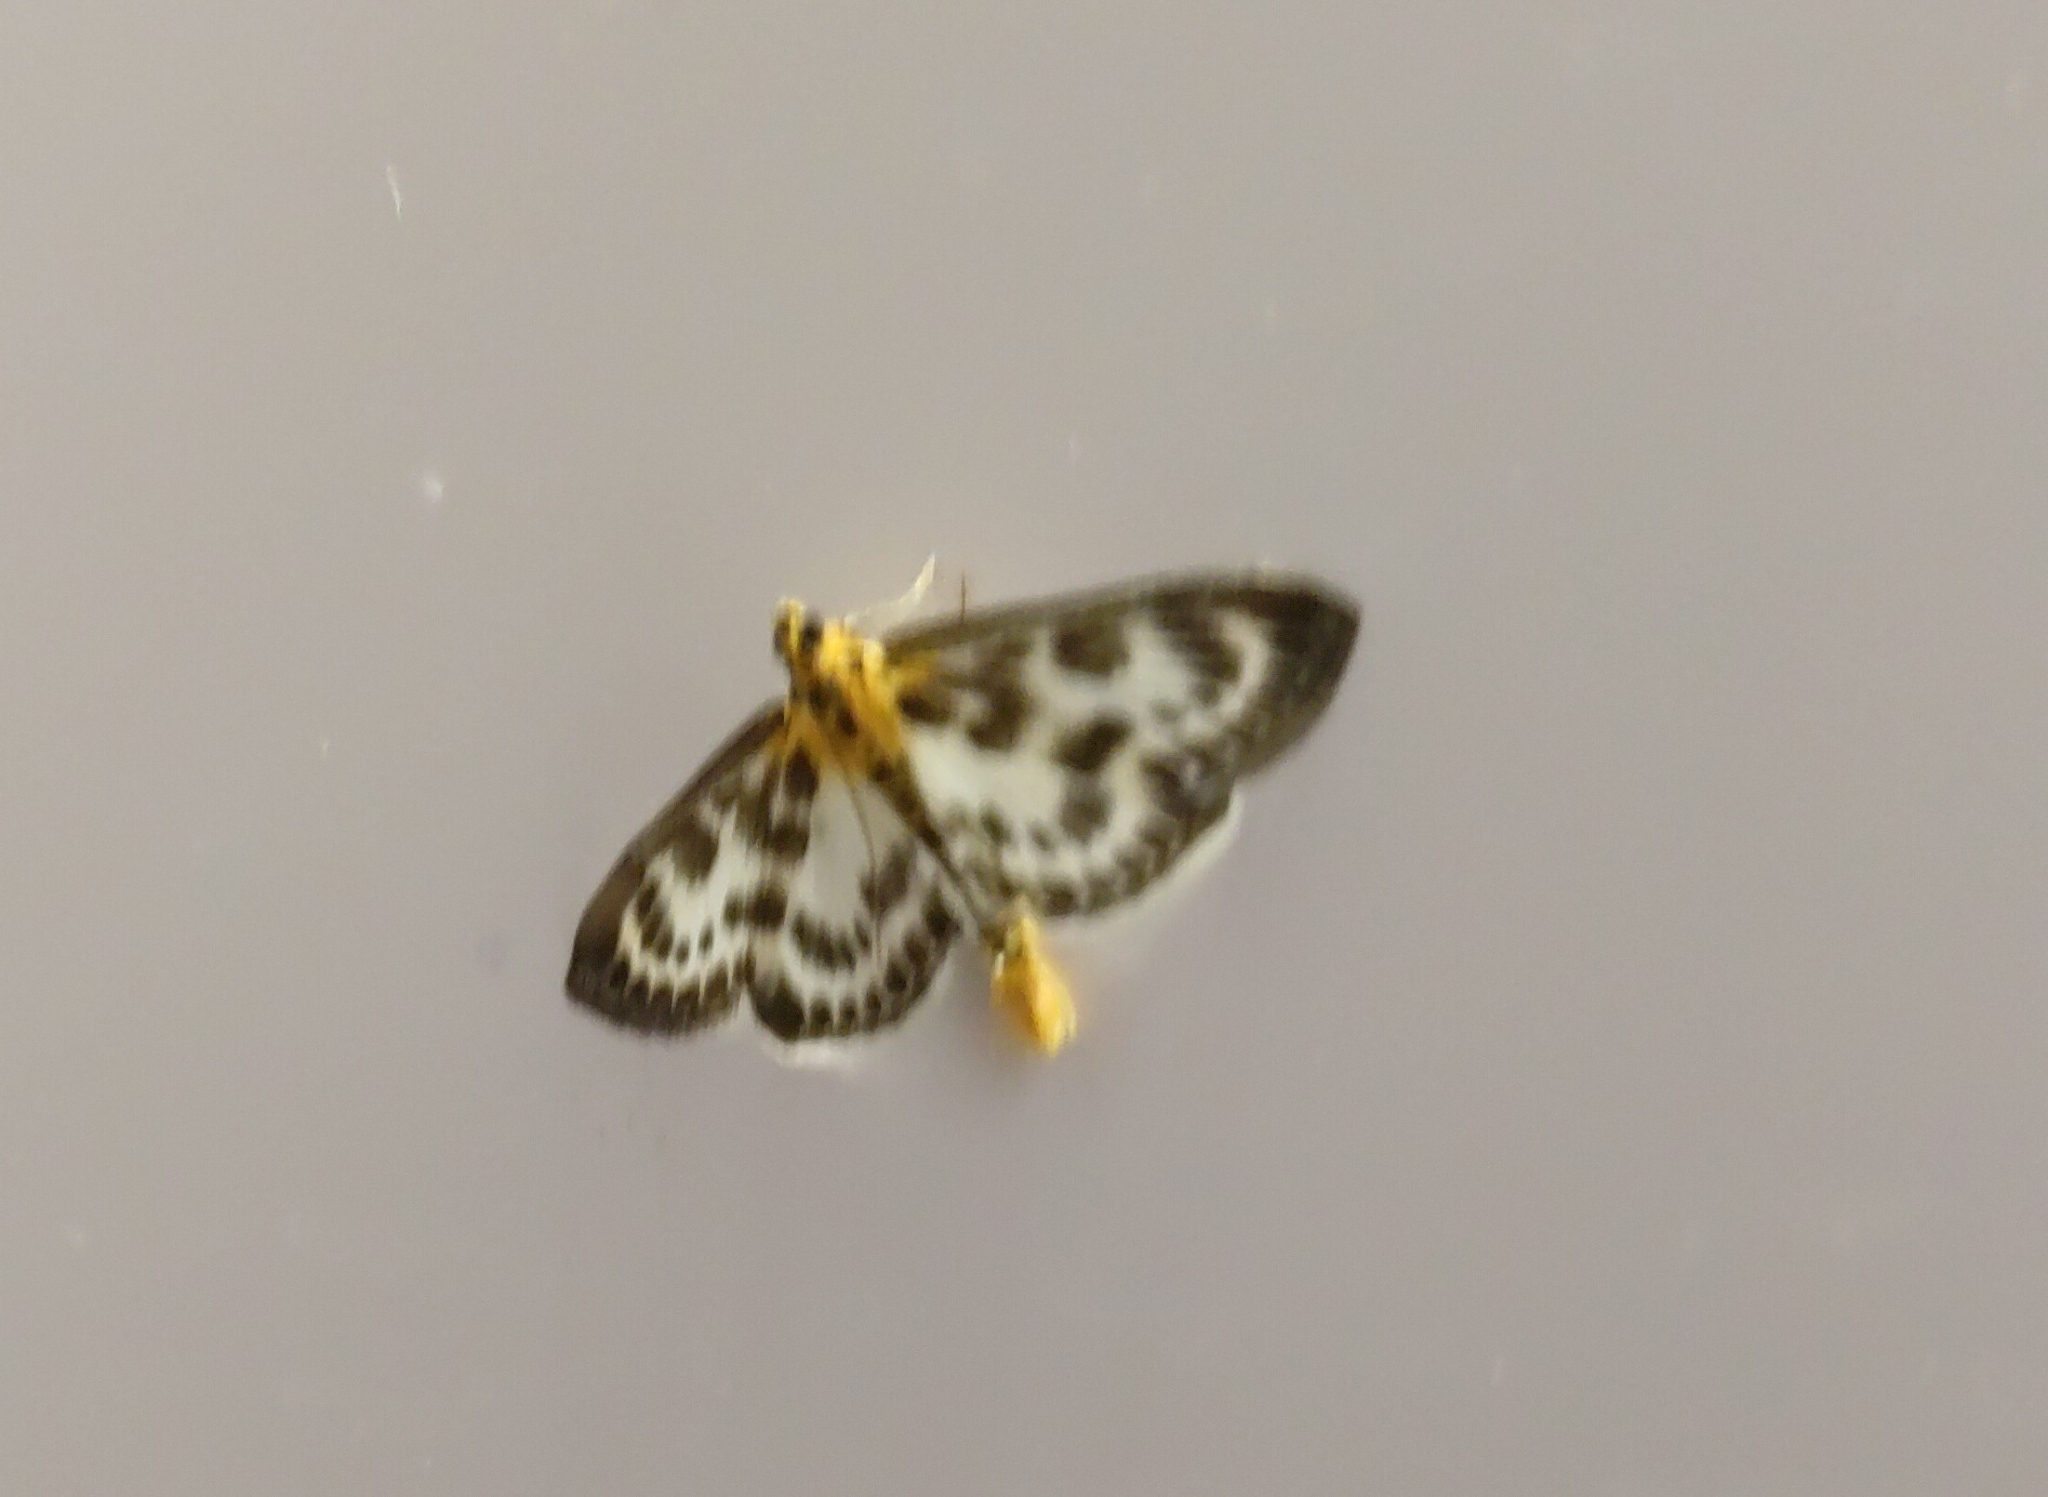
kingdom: Animalia
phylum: Arthropoda
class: Insecta
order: Lepidoptera
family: Crambidae
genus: Anania
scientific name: Anania hortulata
